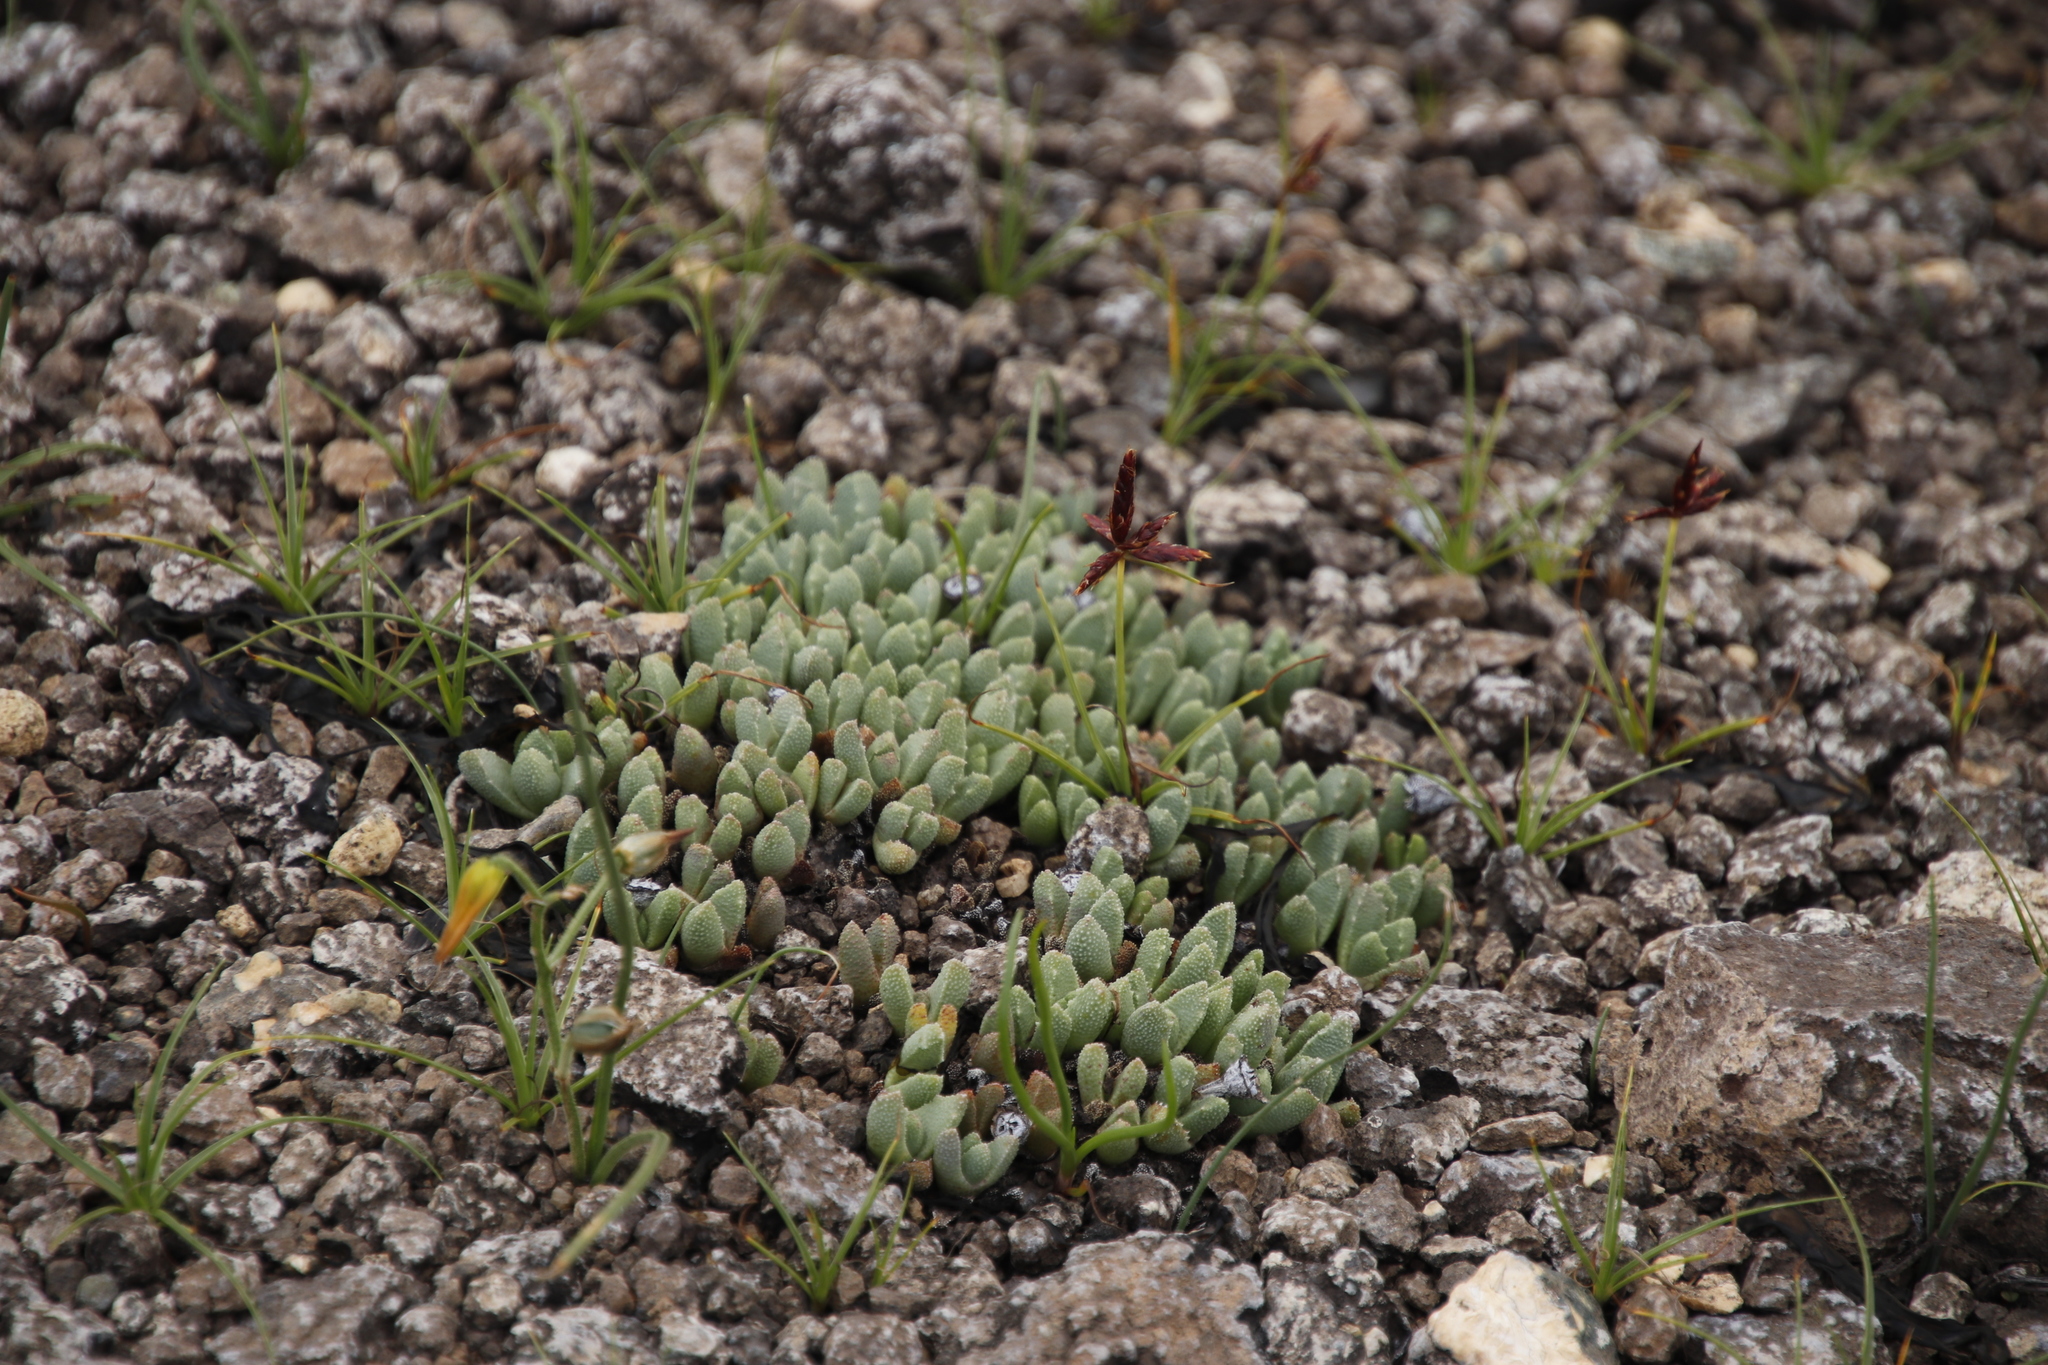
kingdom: Plantae
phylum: Tracheophyta
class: Magnoliopsida
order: Caryophyllales
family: Aizoaceae
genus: Stomatium
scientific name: Stomatium gerstneri
